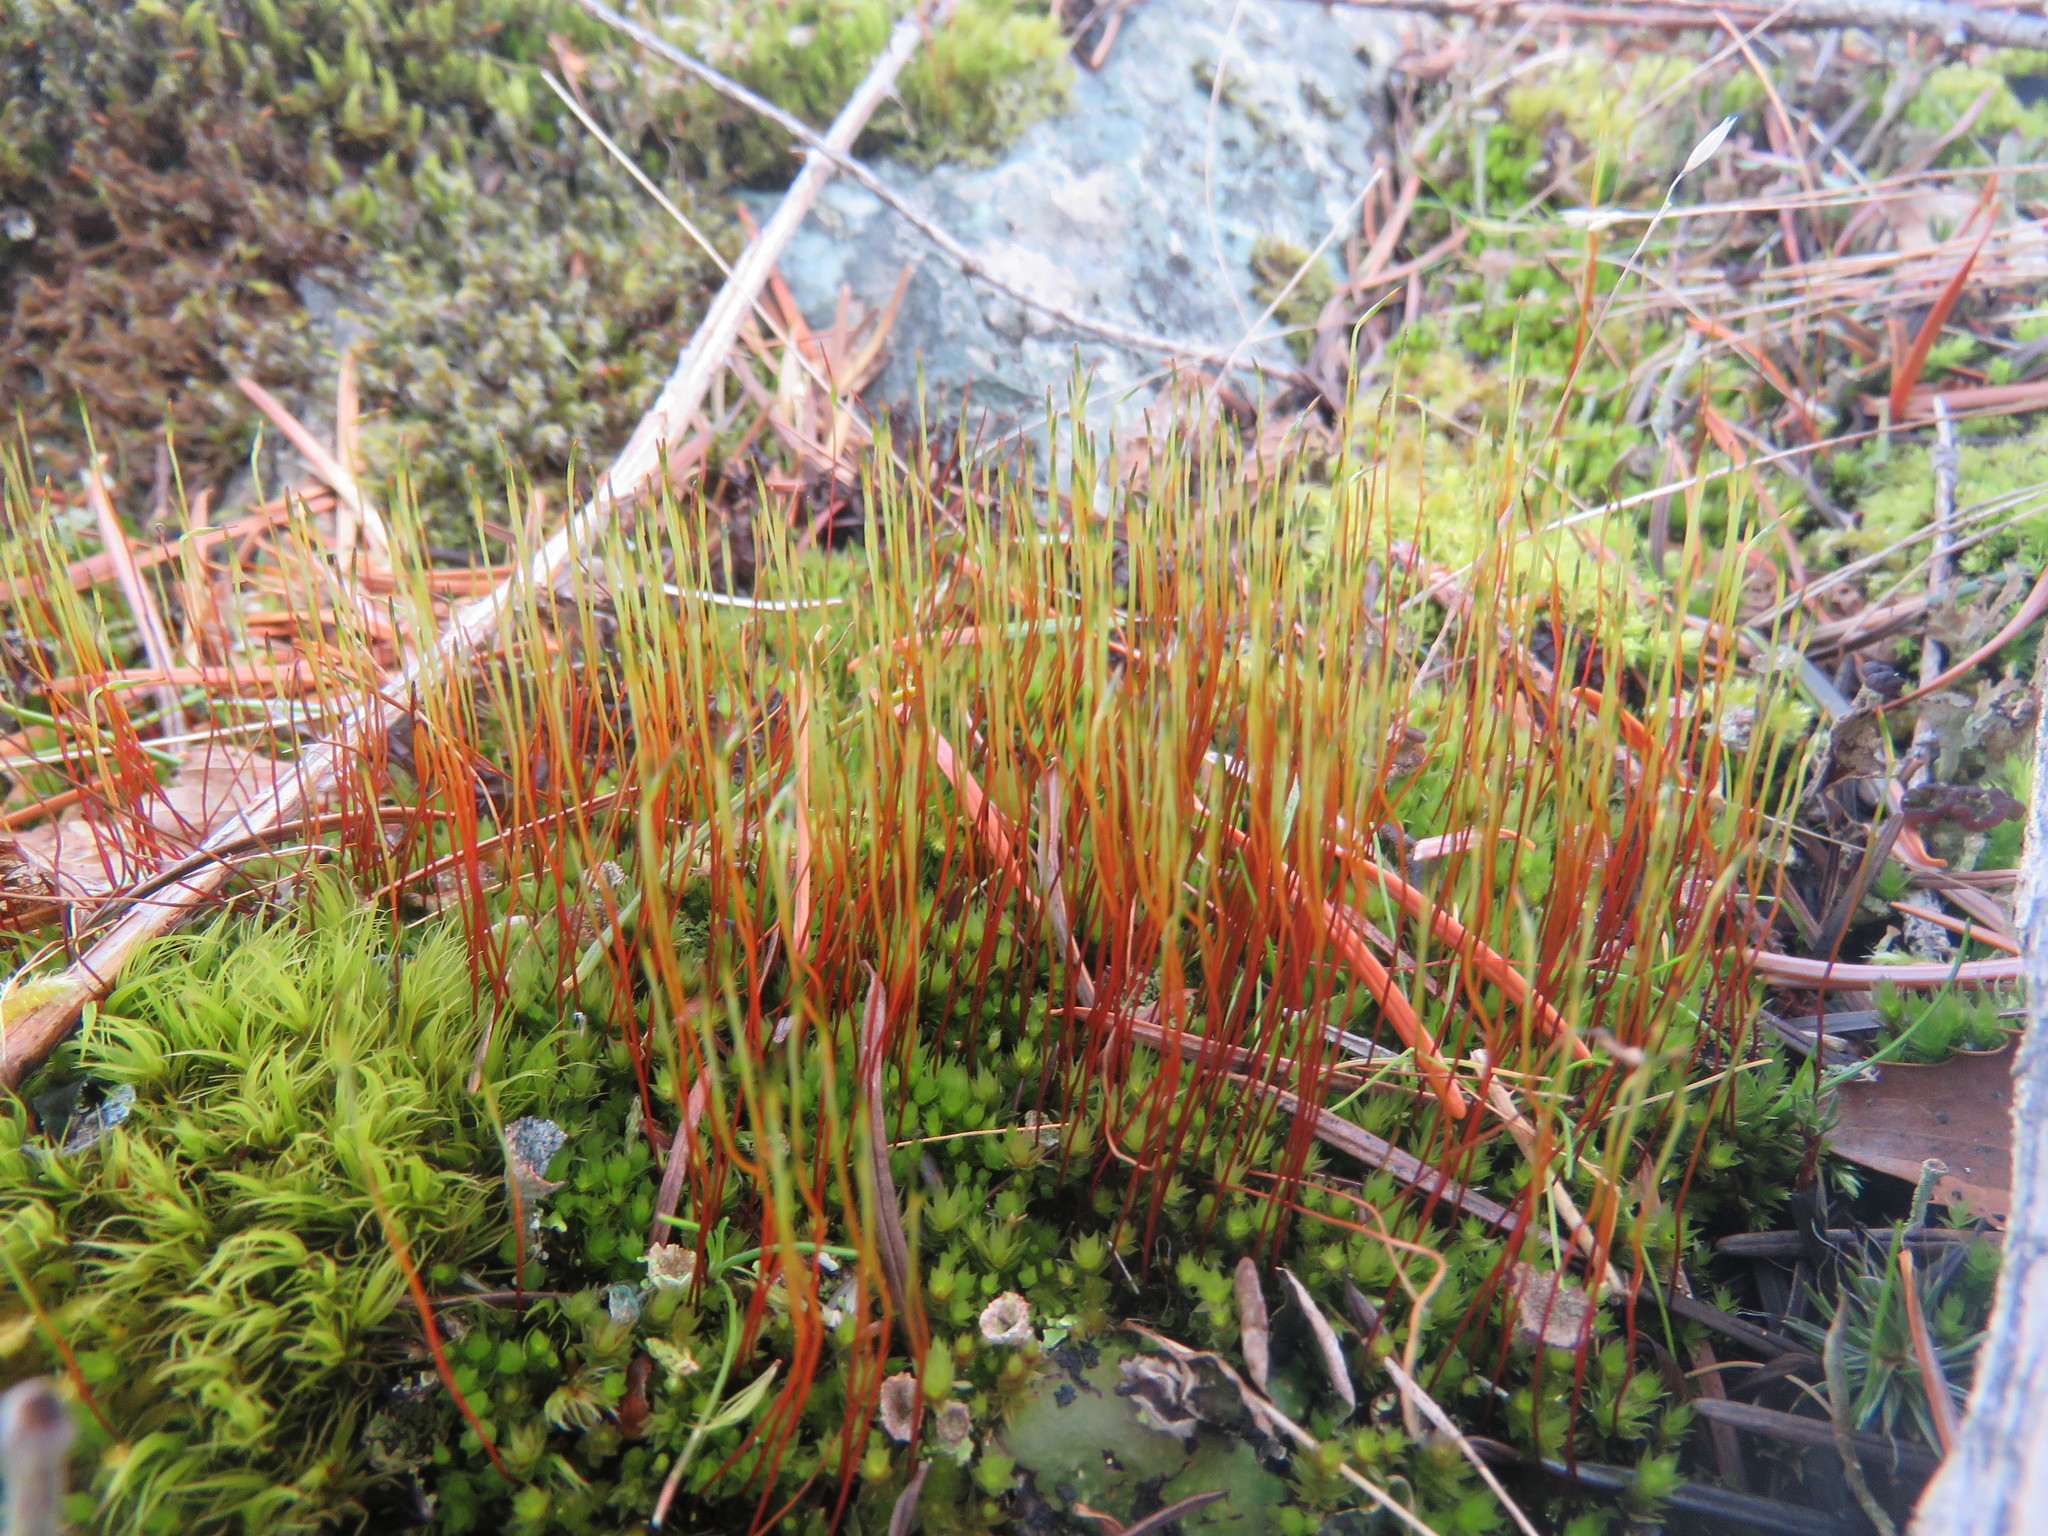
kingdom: Plantae
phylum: Bryophyta
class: Bryopsida
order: Dicranales
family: Ditrichaceae
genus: Ceratodon
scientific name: Ceratodon purpureus
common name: Redshank
